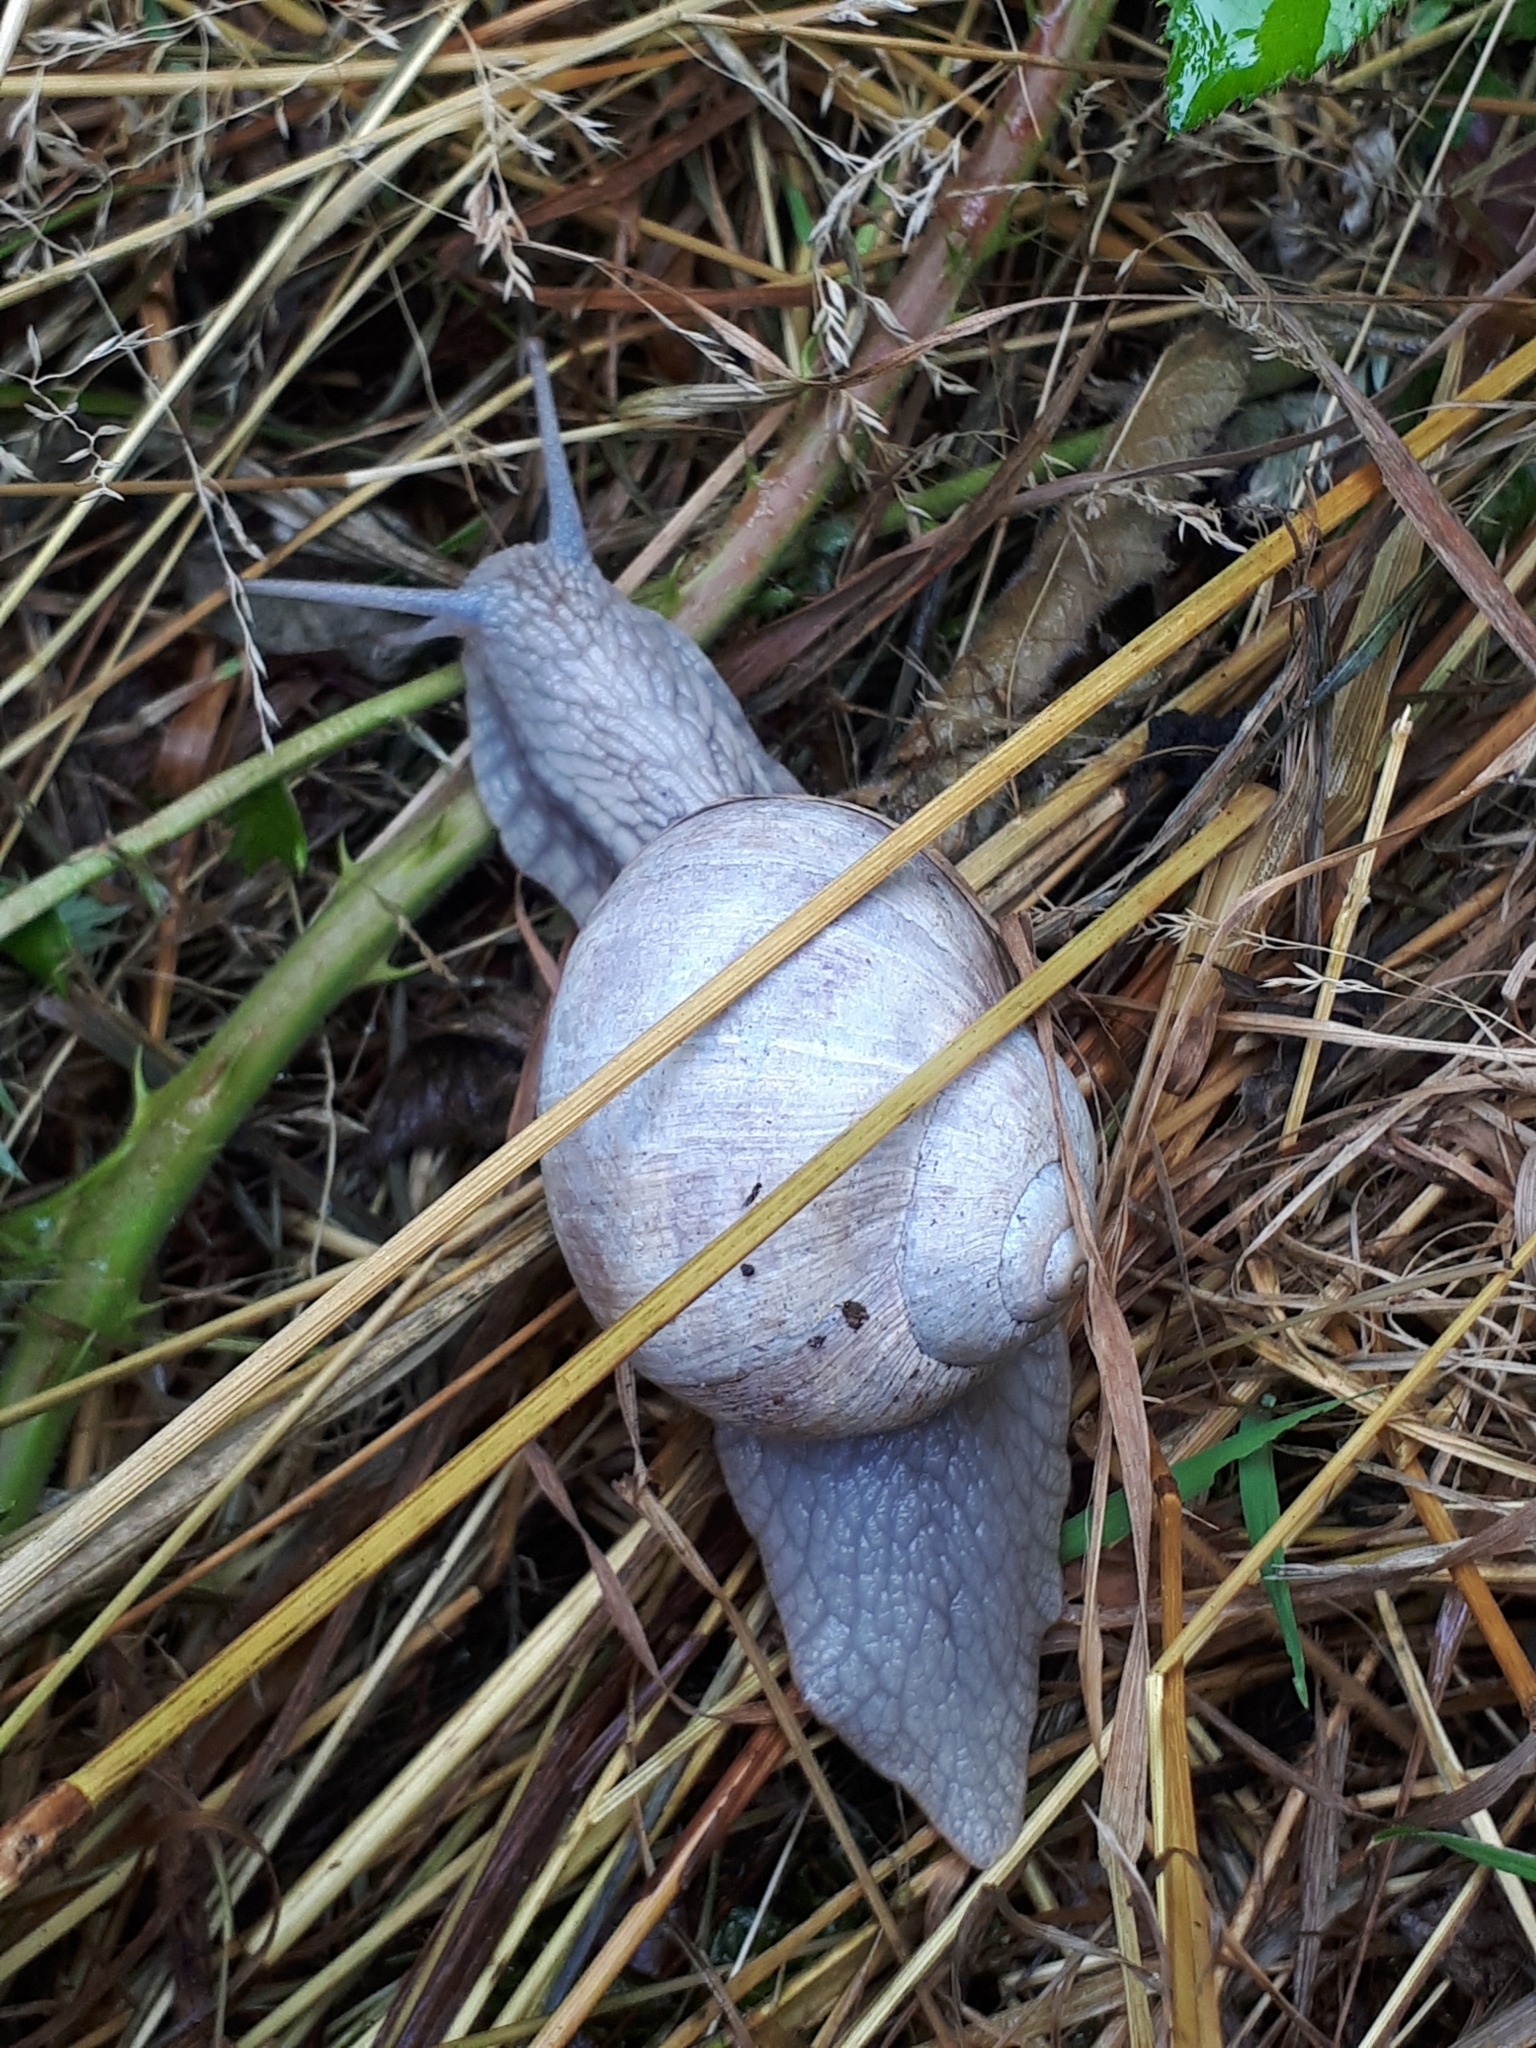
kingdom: Animalia
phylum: Mollusca
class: Gastropoda
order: Stylommatophora
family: Helicidae
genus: Helix
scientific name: Helix pomatia
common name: Roman snail
